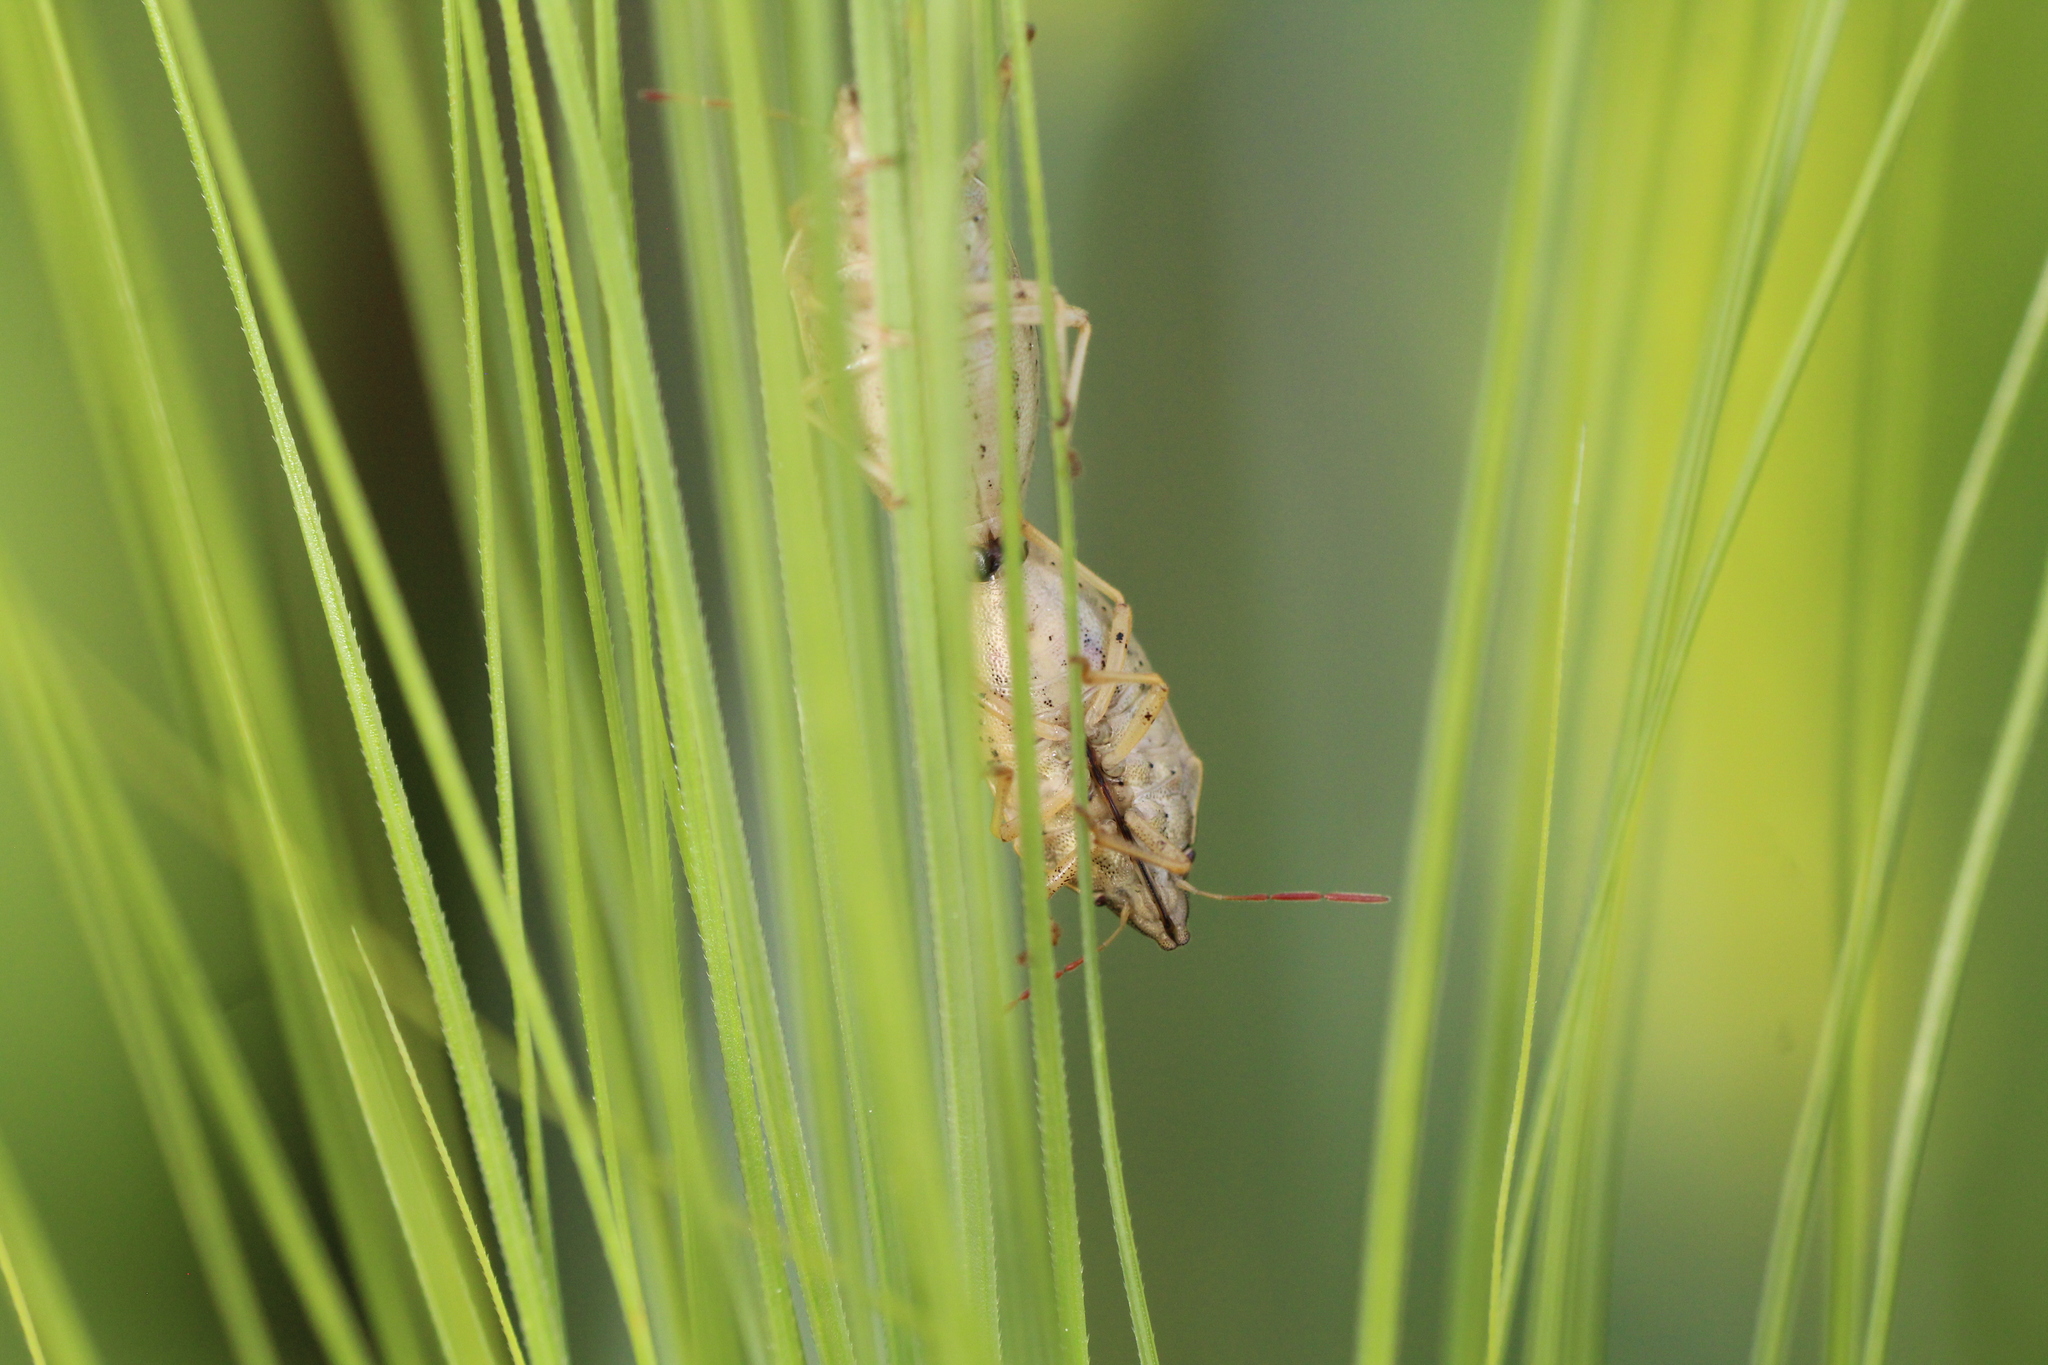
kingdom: Animalia
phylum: Arthropoda
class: Insecta
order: Hemiptera
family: Pentatomidae
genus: Aelia
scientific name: Aelia acuminata
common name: Bishop's mitre
